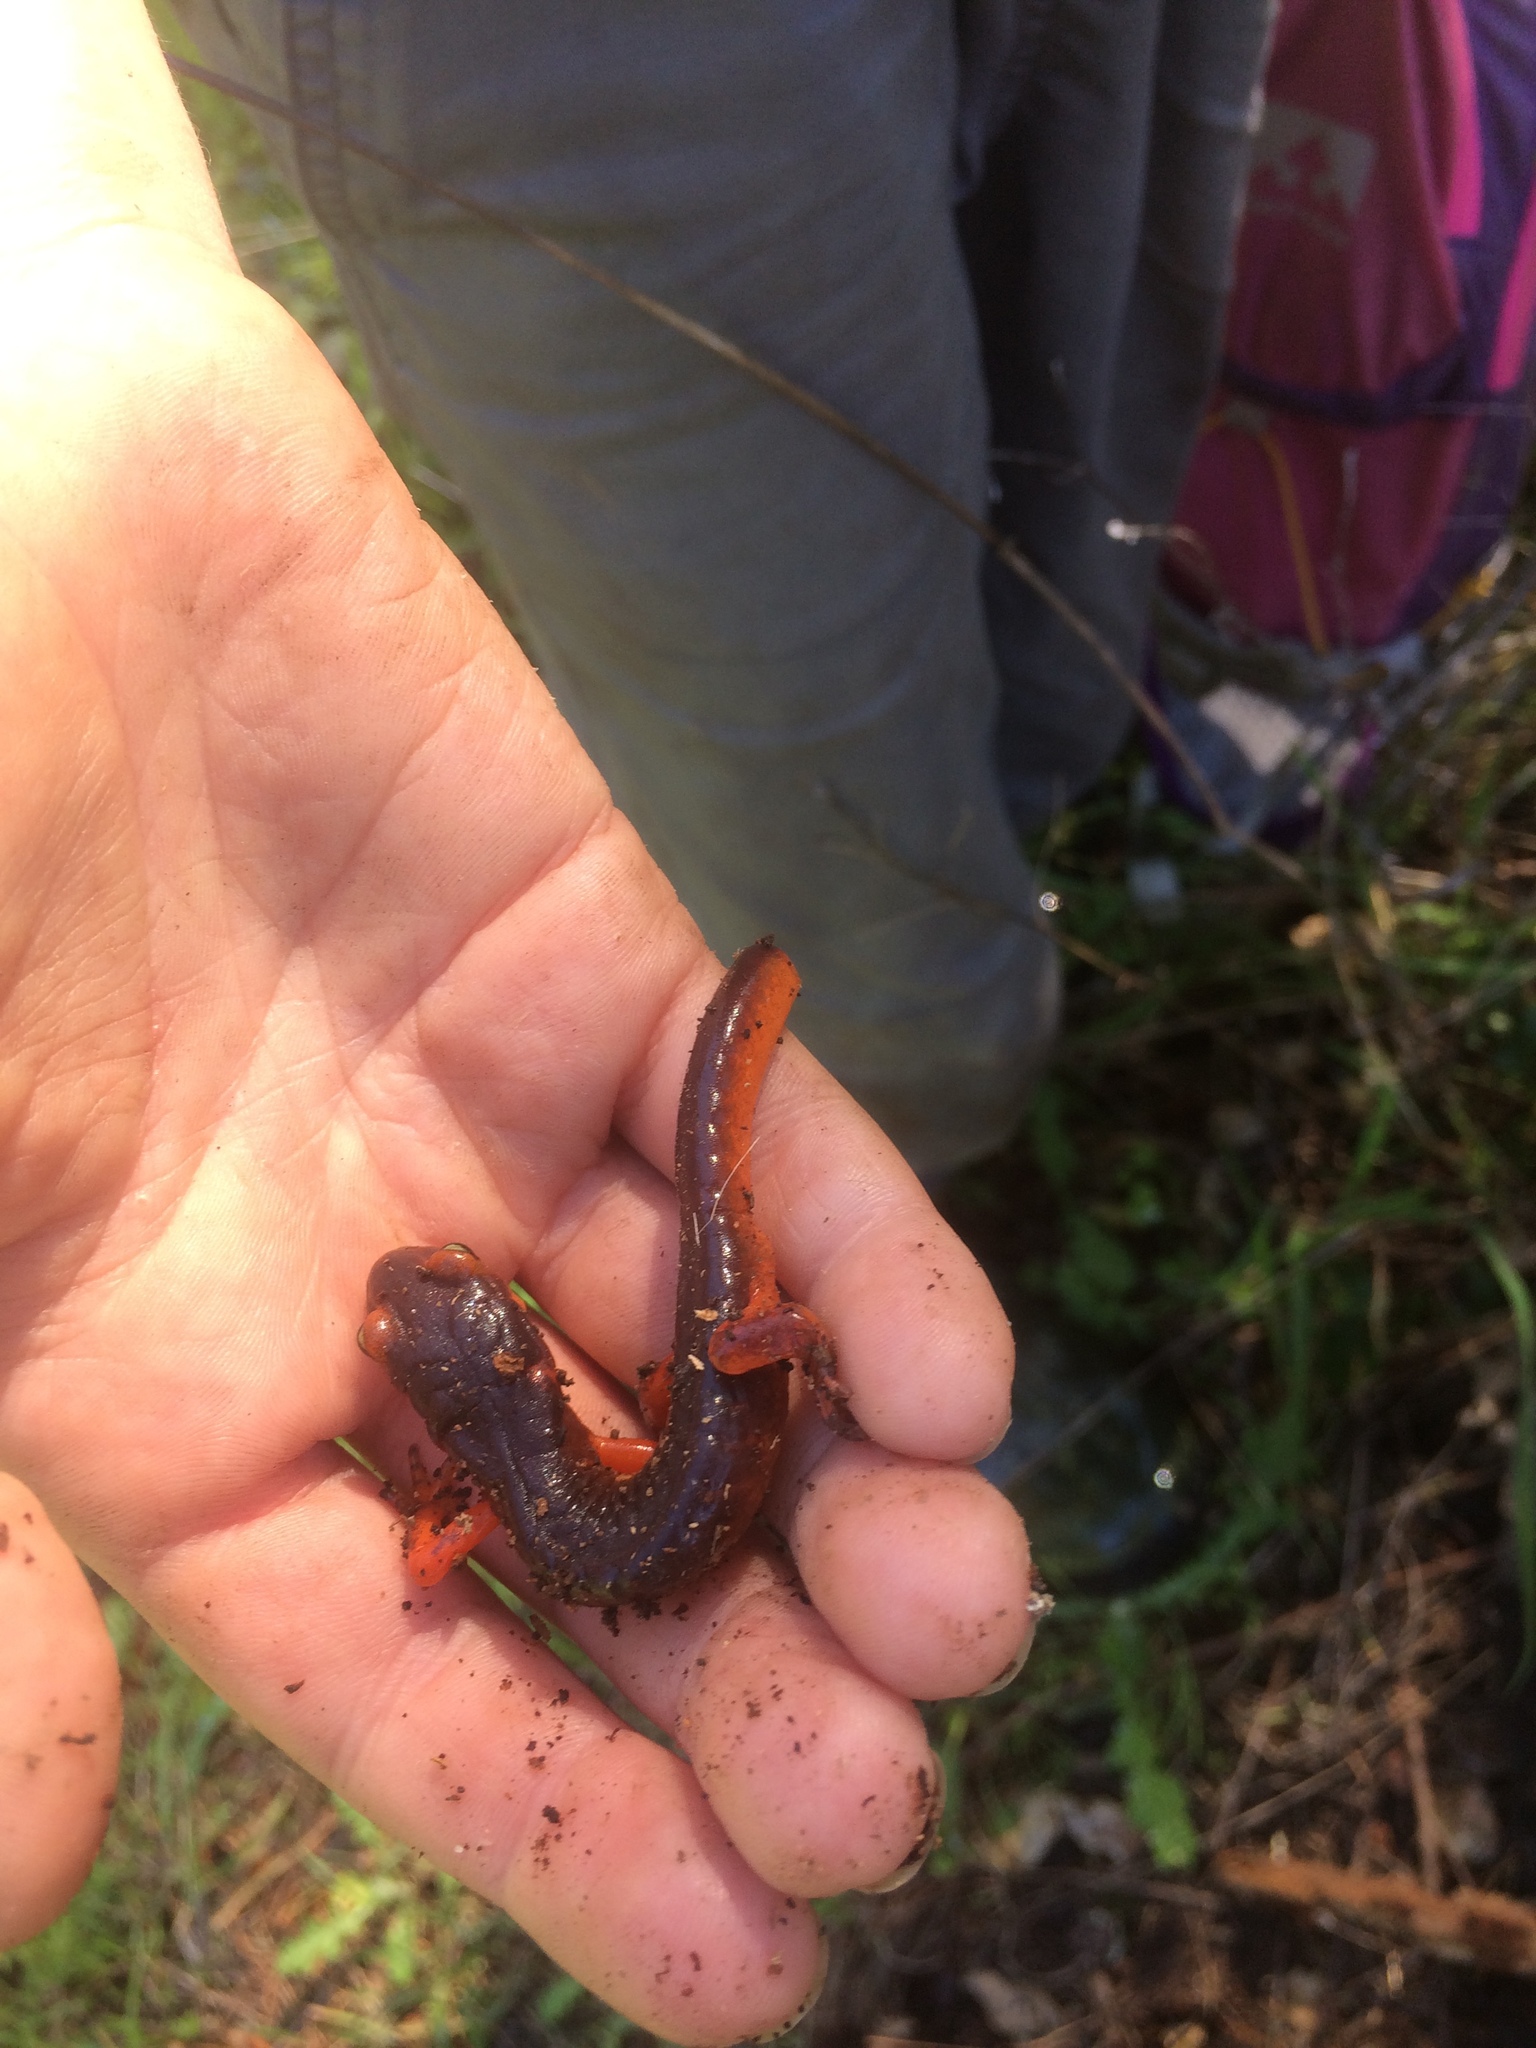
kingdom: Animalia
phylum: Chordata
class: Amphibia
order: Caudata
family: Plethodontidae
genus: Ensatina
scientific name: Ensatina eschscholtzii
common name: Ensatina
